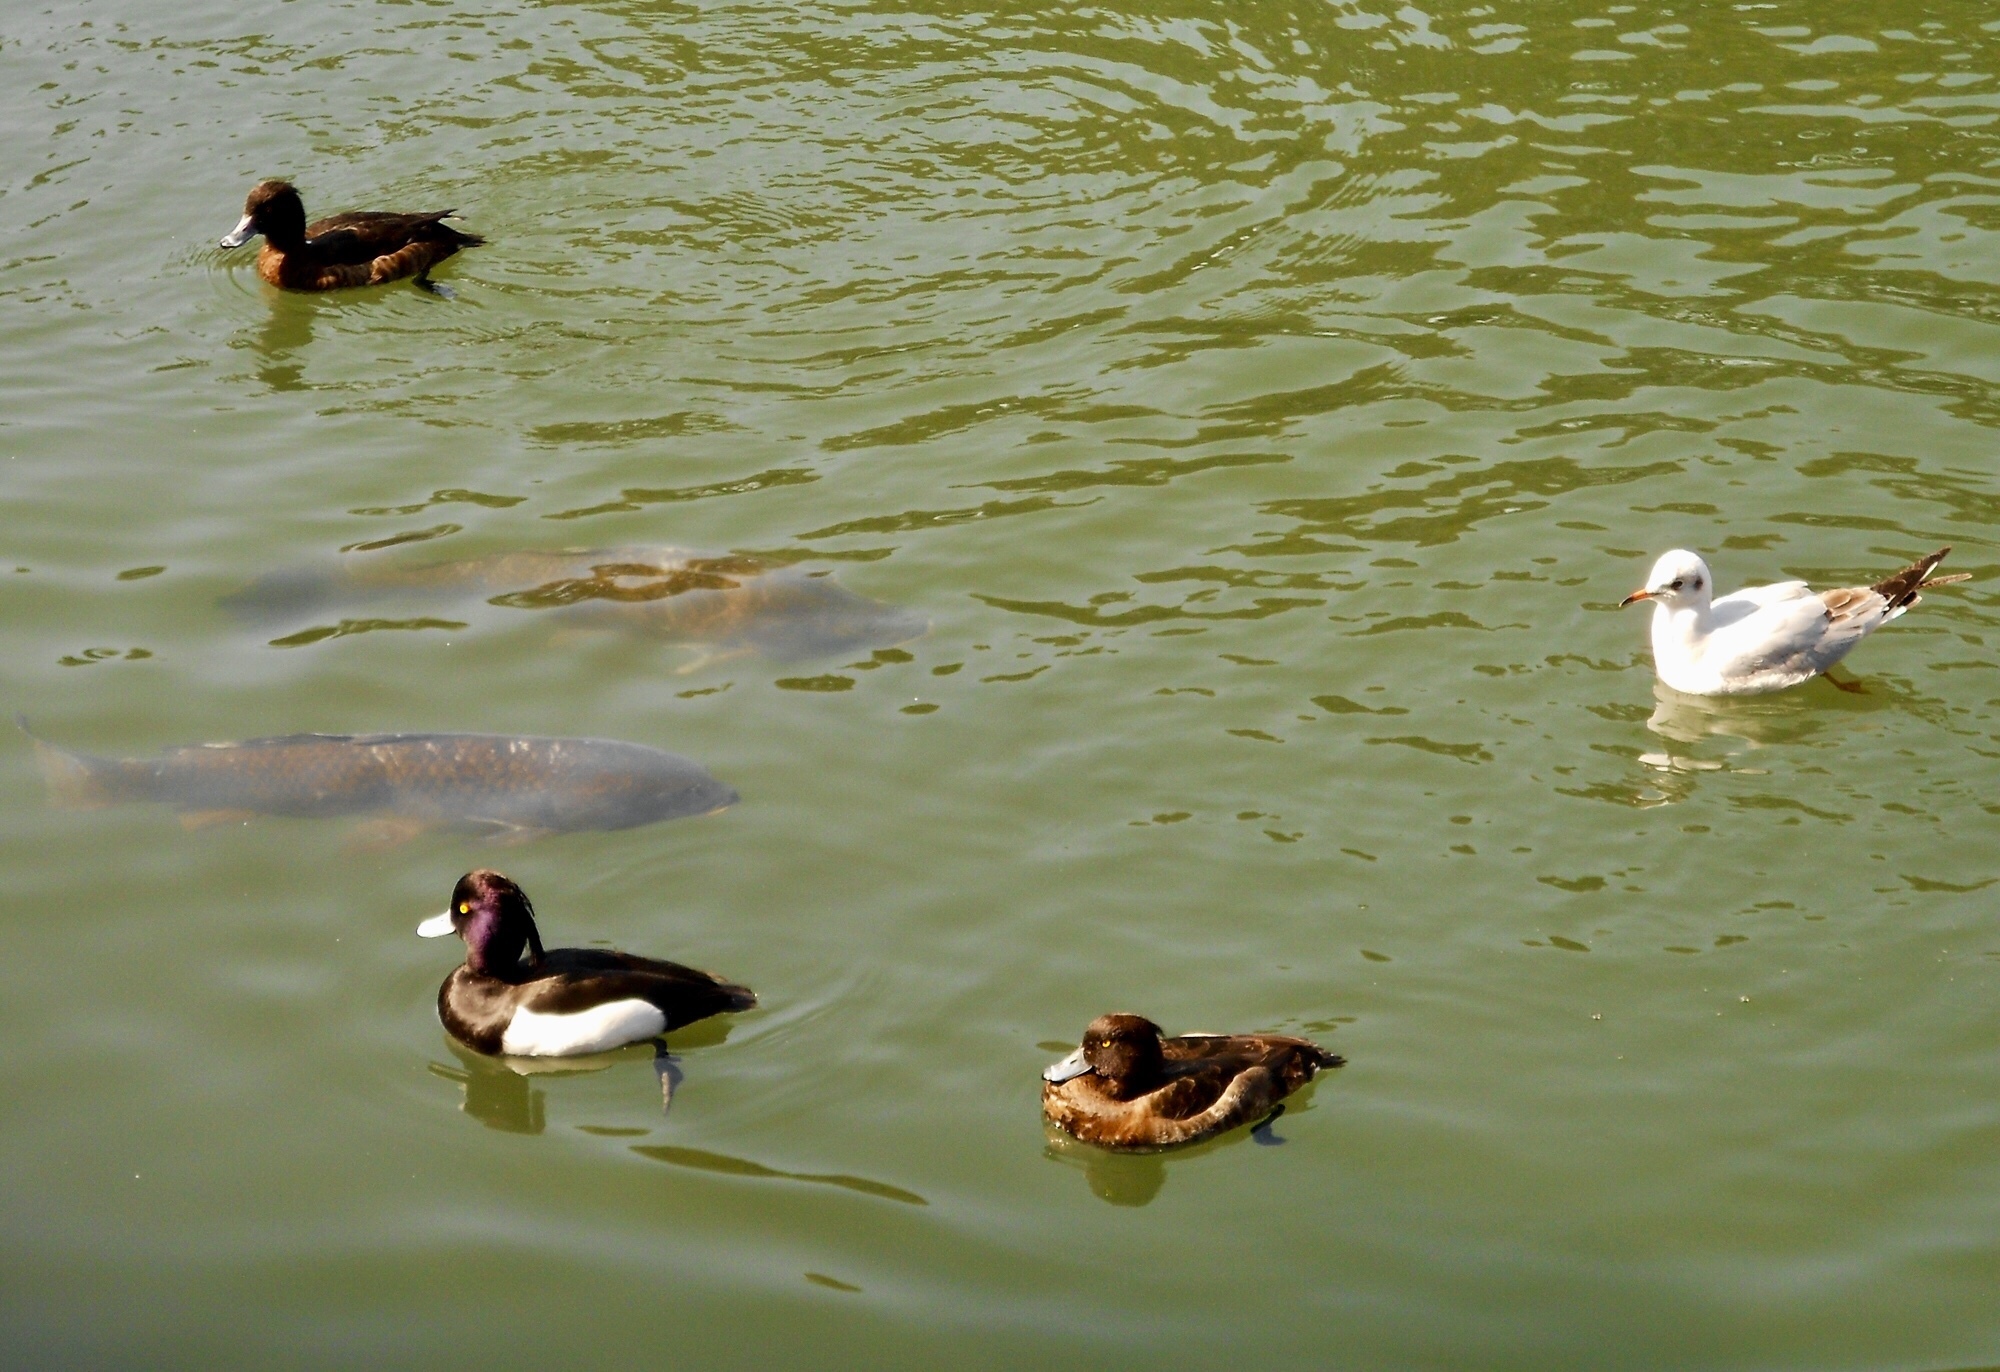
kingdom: Animalia
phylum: Chordata
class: Aves
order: Anseriformes
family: Anatidae
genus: Aythya
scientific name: Aythya fuligula
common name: Tufted duck
